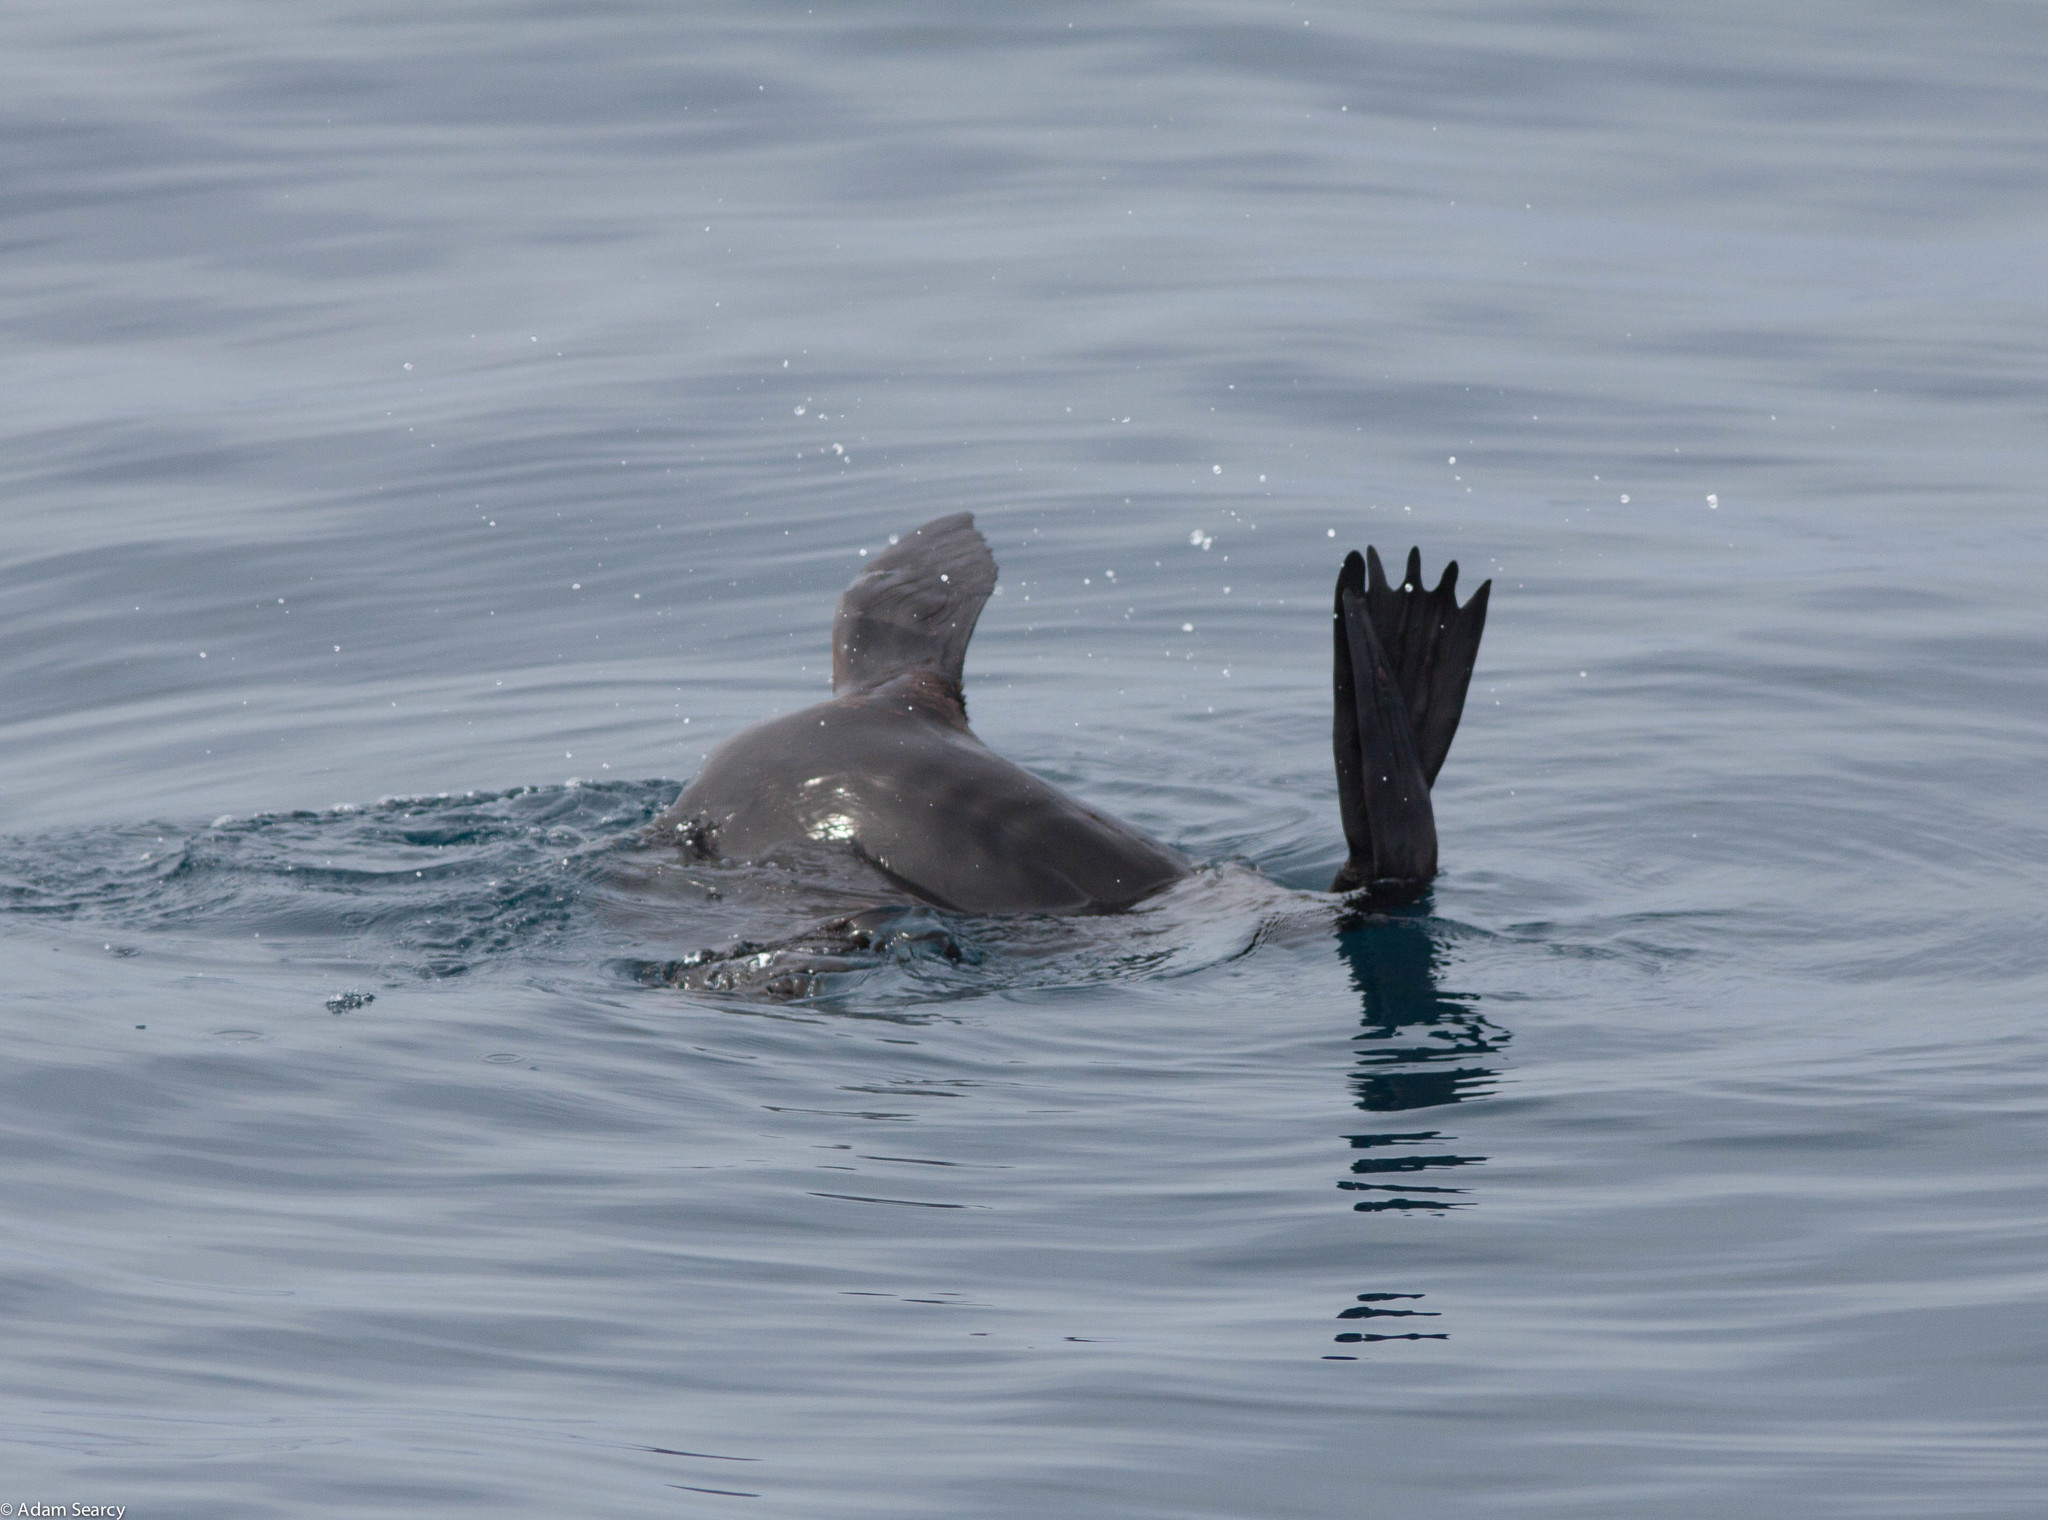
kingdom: Animalia
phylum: Chordata
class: Mammalia
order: Carnivora
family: Otariidae
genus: Arctocephalus
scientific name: Arctocephalus philippii
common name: Juan fernández fur seal
